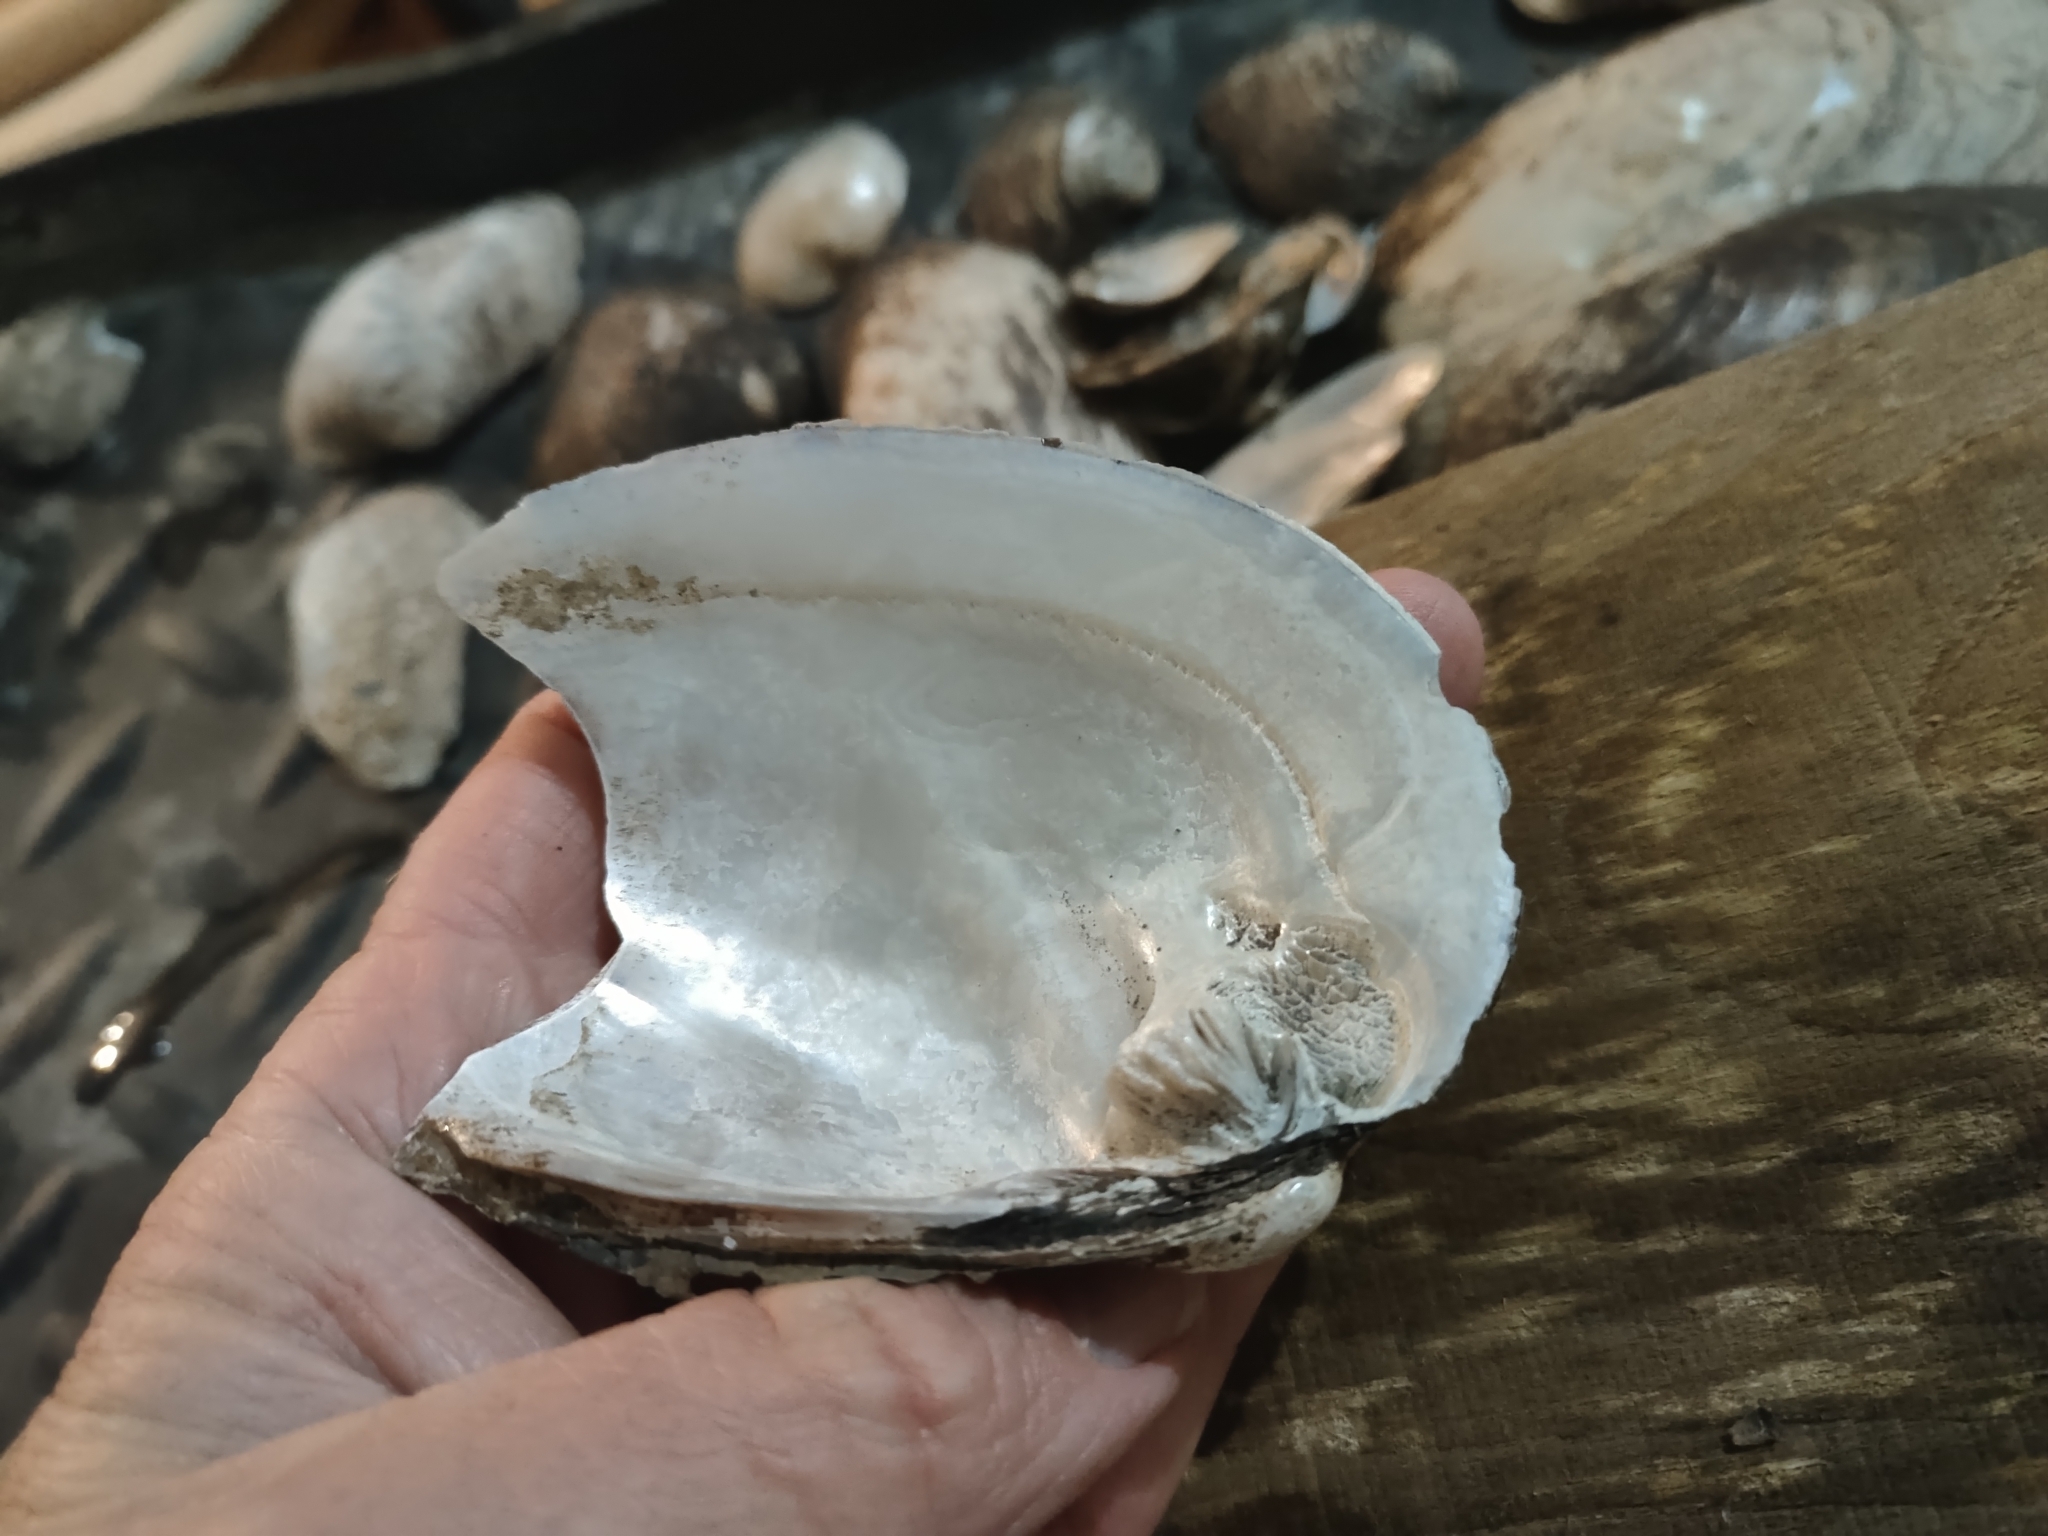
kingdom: Animalia
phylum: Mollusca
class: Bivalvia
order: Unionida
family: Unionidae
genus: Amblema
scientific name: Amblema plicata
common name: Threeridge
